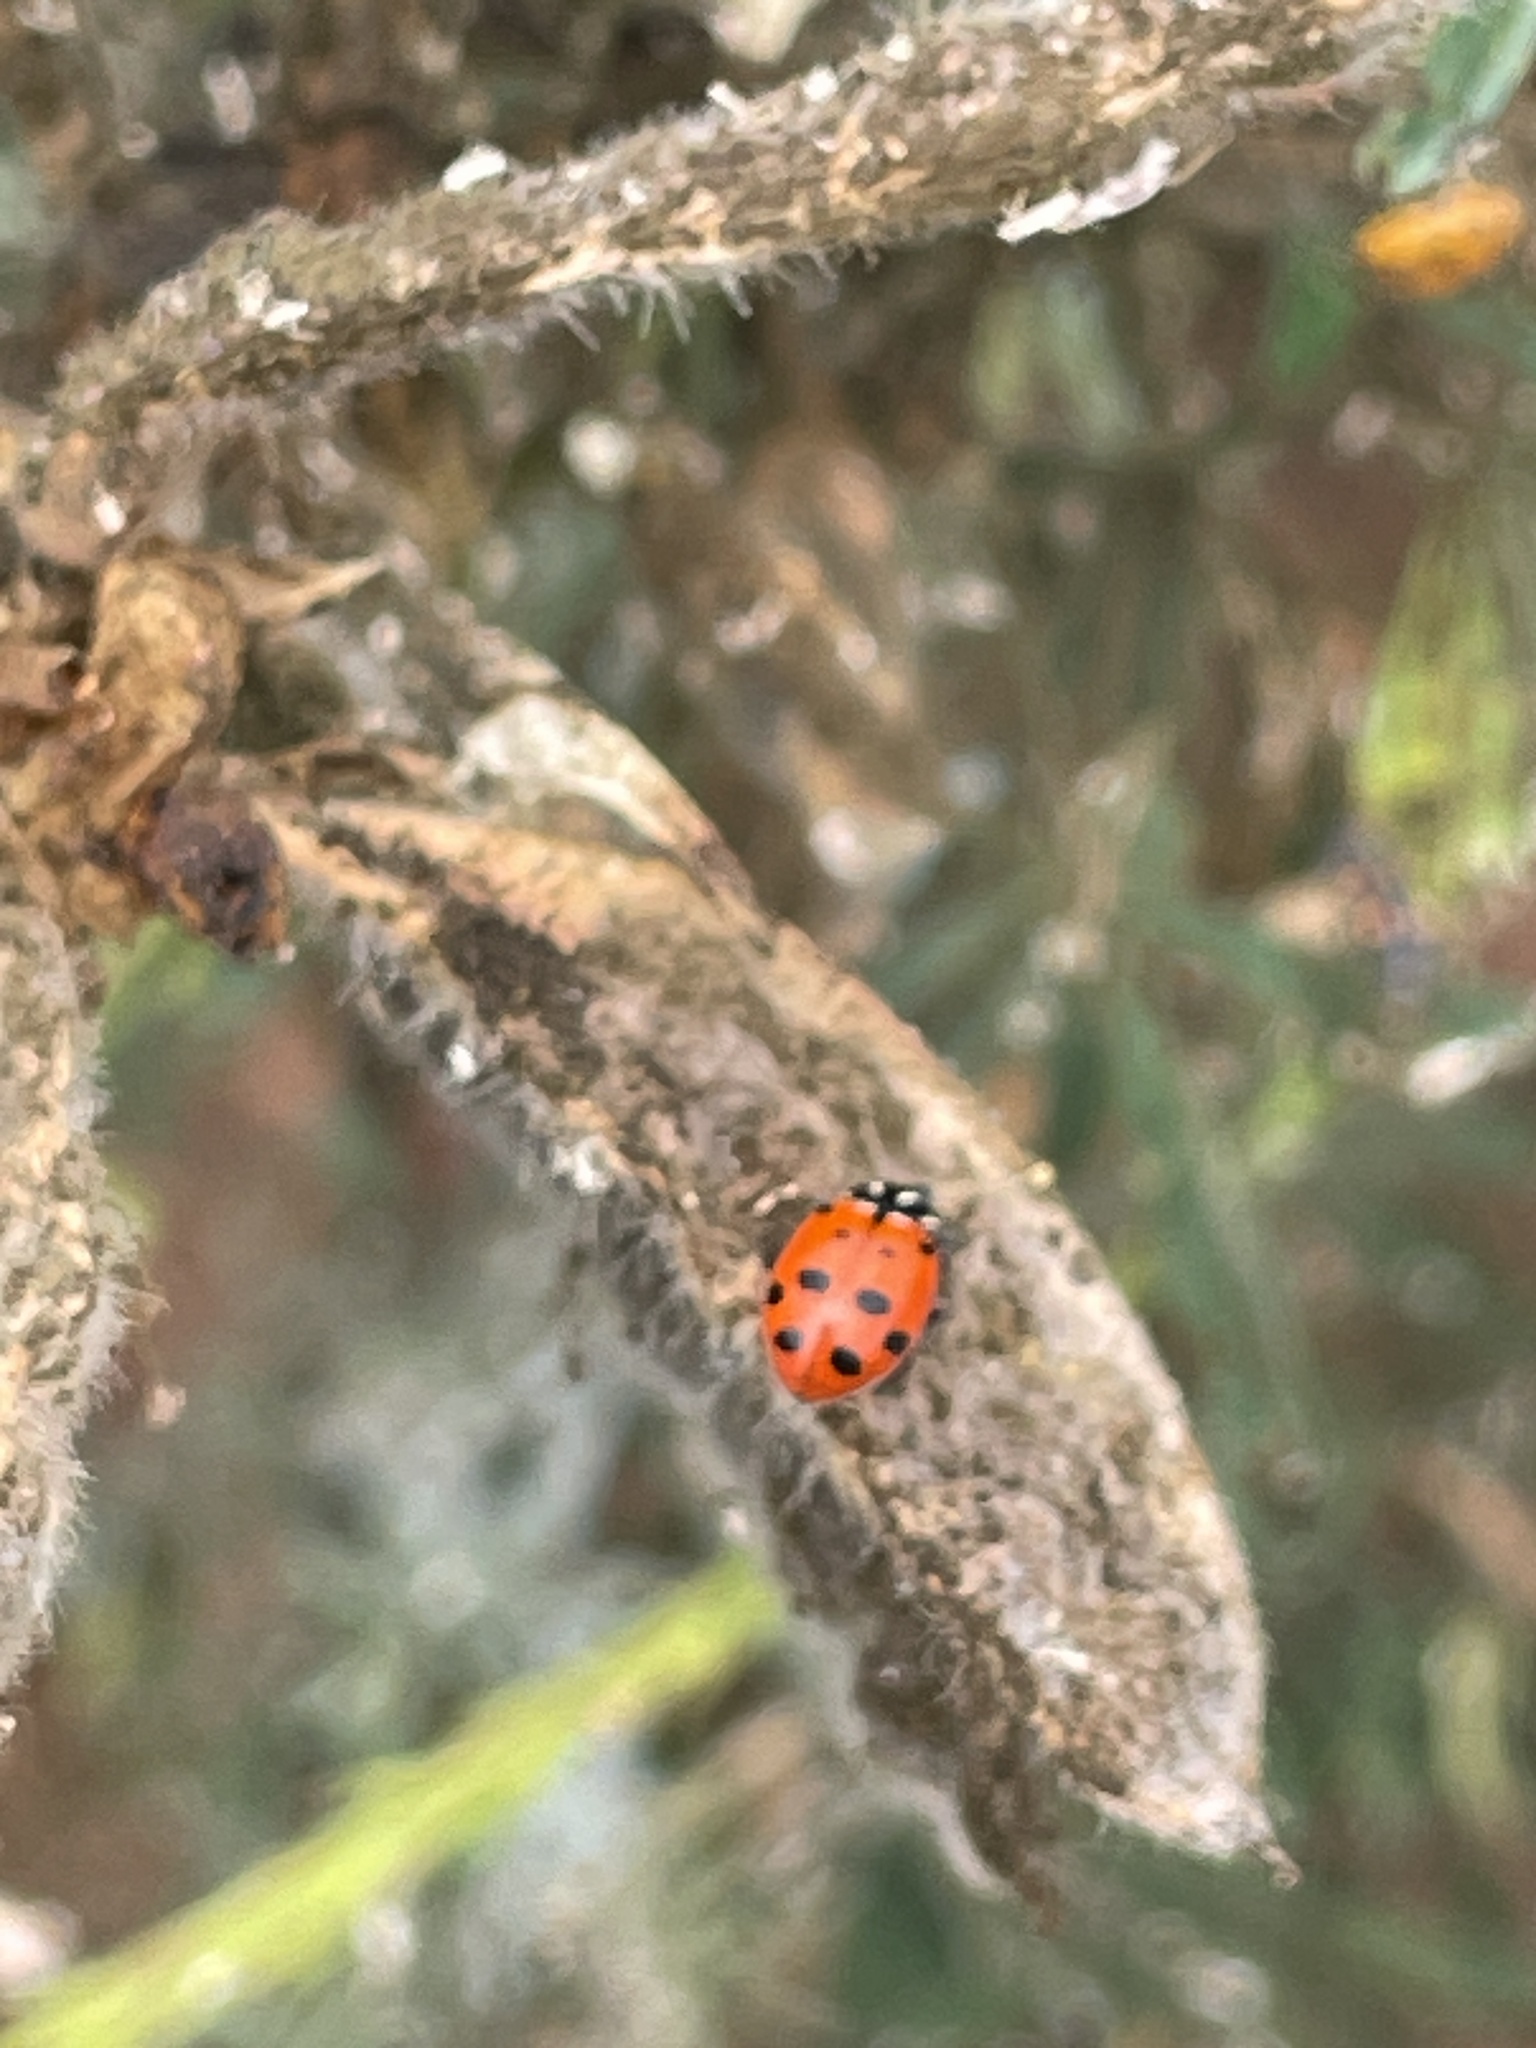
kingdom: Animalia
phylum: Arthropoda
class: Insecta
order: Coleoptera
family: Coccinellidae
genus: Hippodamia
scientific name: Hippodamia convergens
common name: Convergent lady beetle
